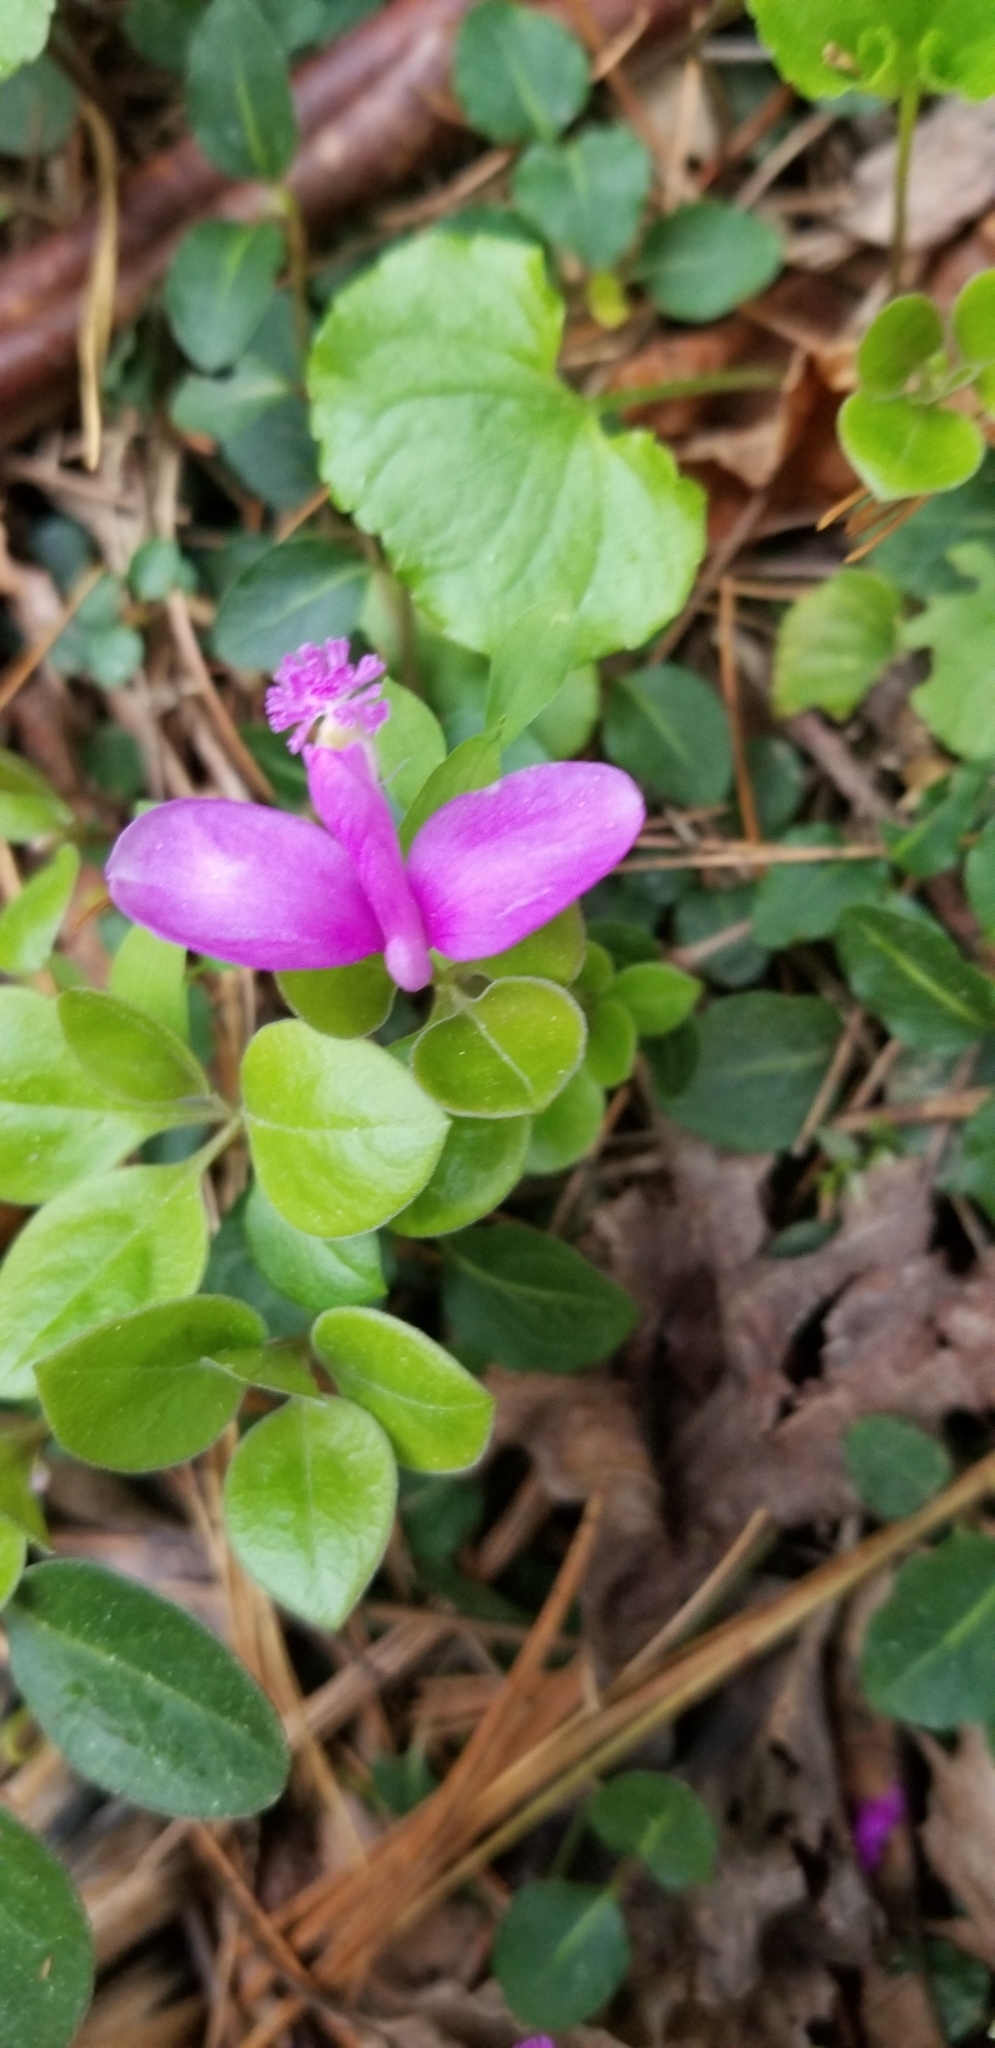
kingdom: Plantae
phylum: Tracheophyta
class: Magnoliopsida
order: Fabales
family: Polygalaceae
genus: Polygaloides
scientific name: Polygaloides paucifolia
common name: Bird-on-the-wing
